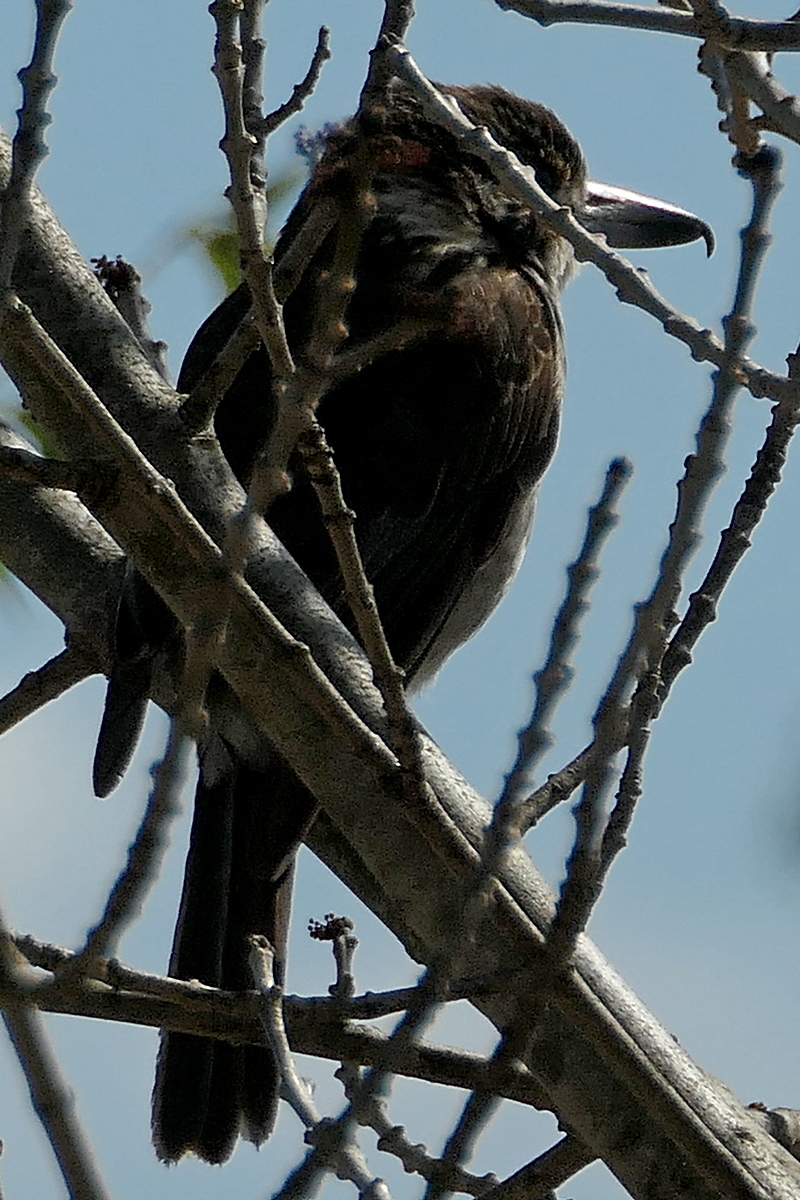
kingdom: Animalia
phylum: Chordata
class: Aves
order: Passeriformes
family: Cracticidae
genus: Cracticus
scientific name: Cracticus torquatus
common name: Grey butcherbird
